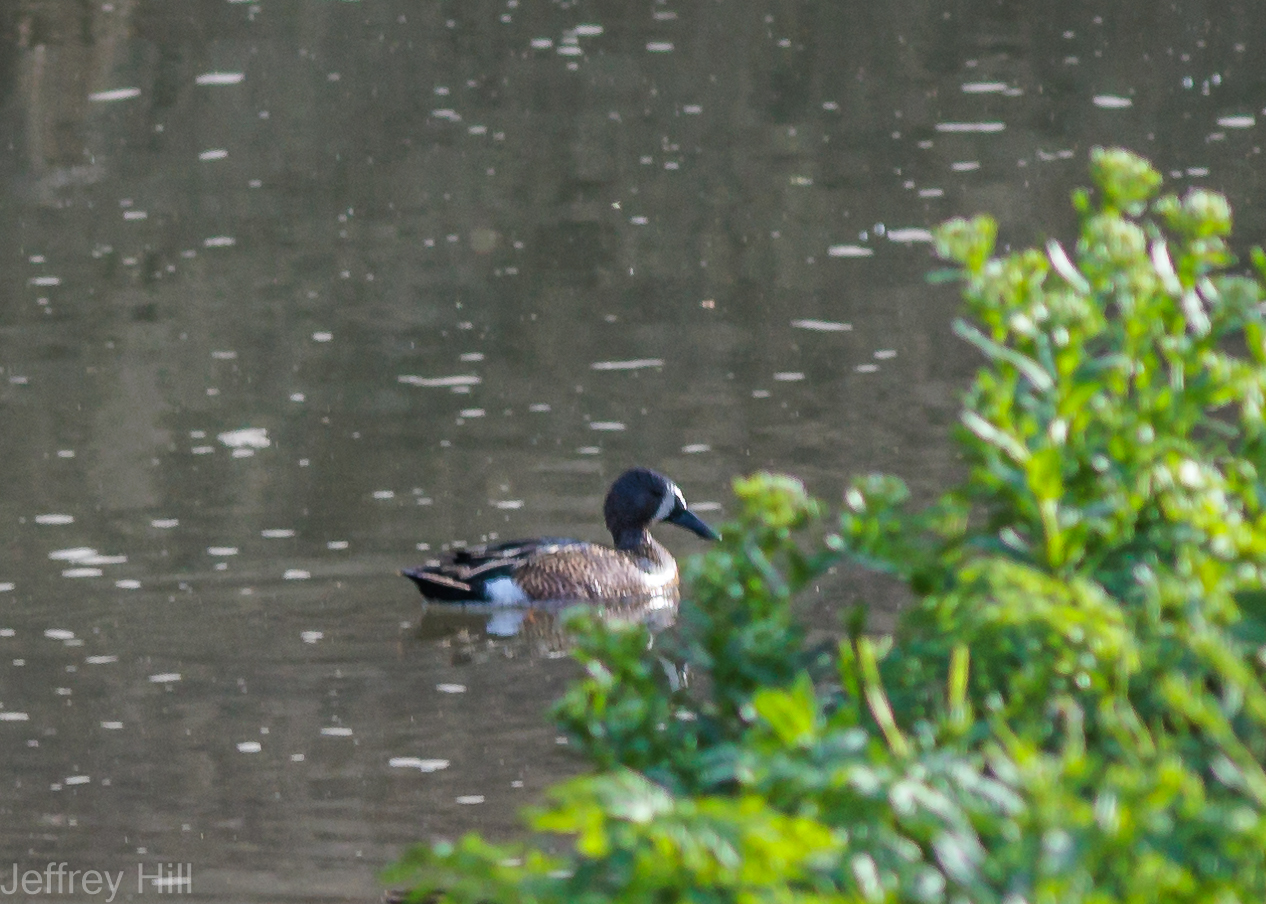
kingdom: Animalia
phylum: Chordata
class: Aves
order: Anseriformes
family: Anatidae
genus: Spatula
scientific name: Spatula discors
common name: Blue-winged teal
